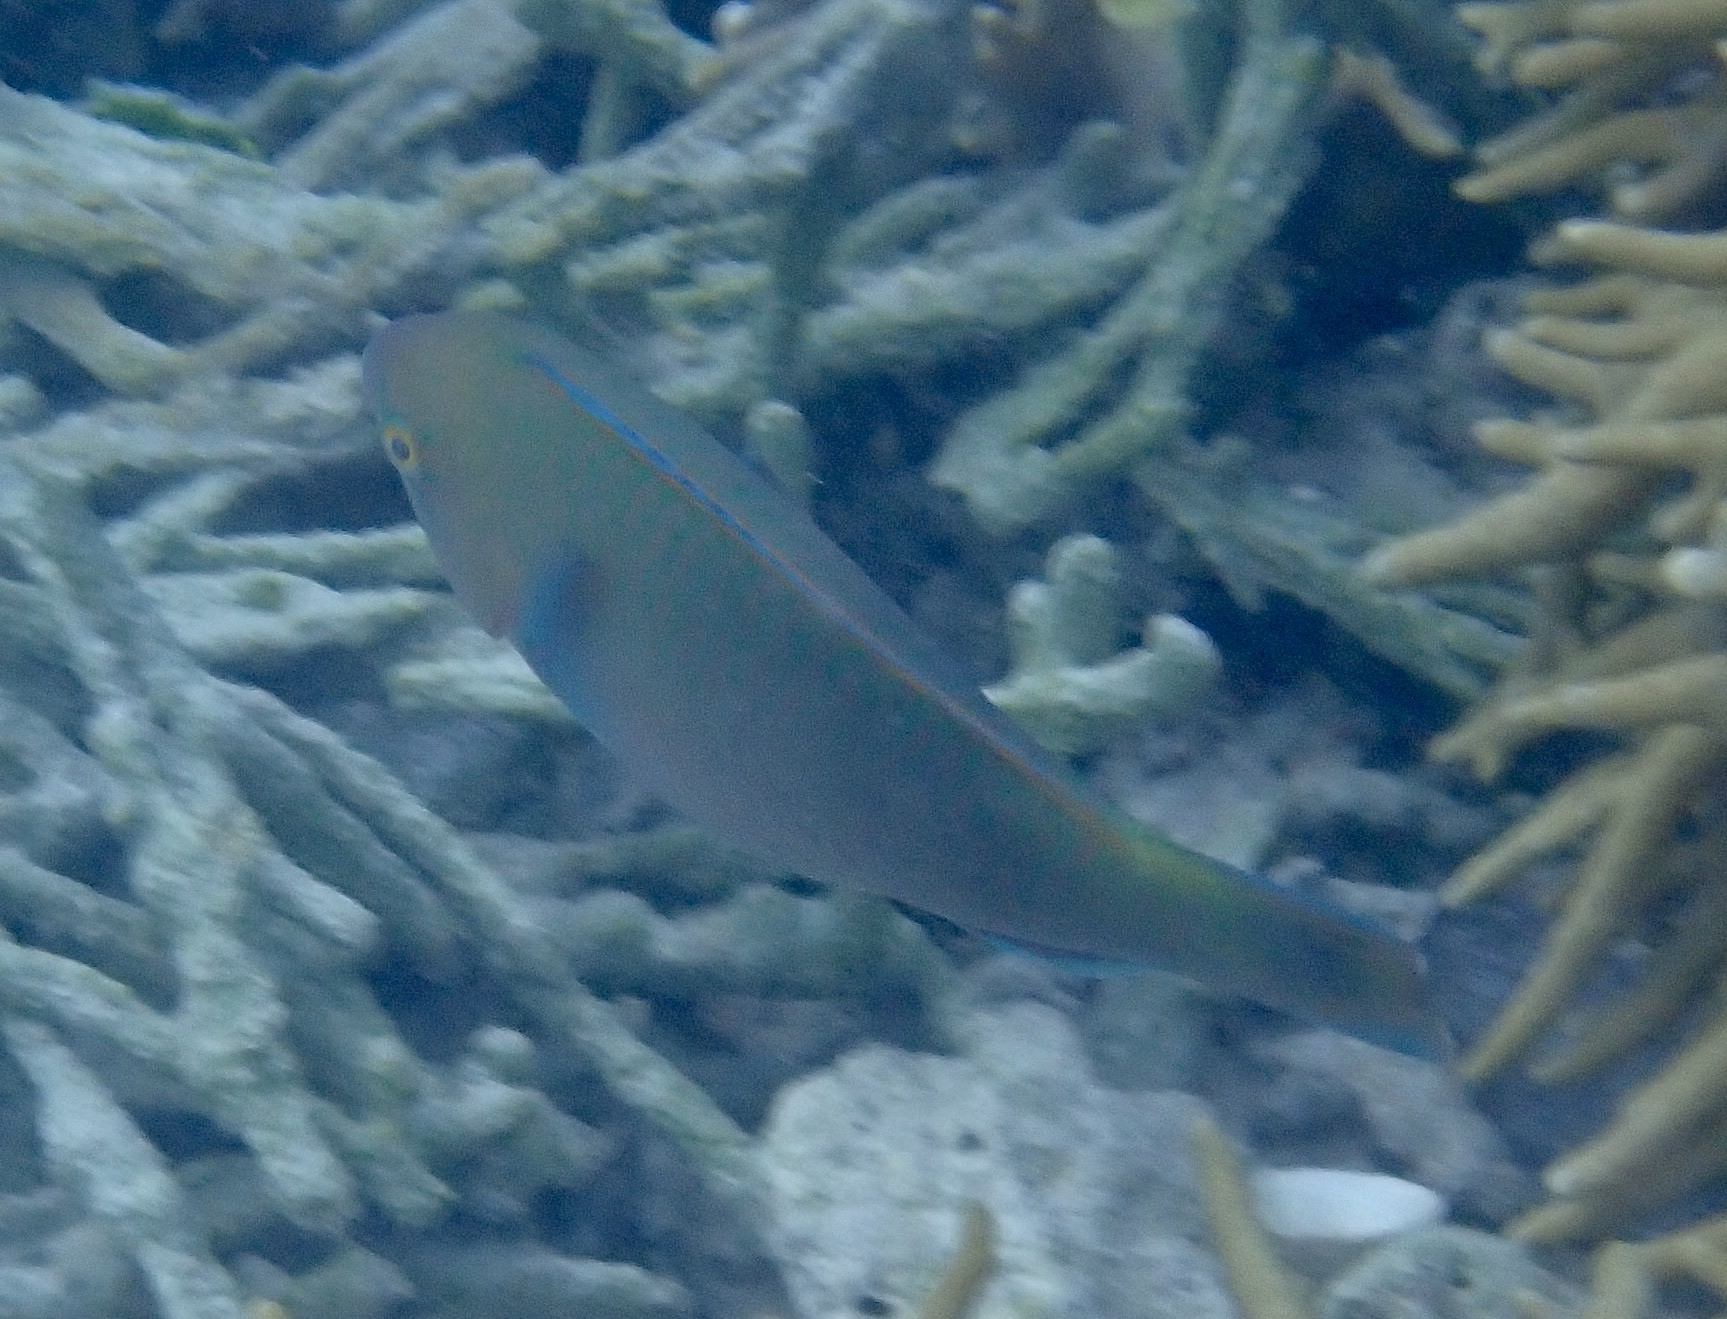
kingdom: Animalia
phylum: Chordata
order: Perciformes
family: Scaridae
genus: Scarus
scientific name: Scarus quoyi
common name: Quoy's parrotfish
